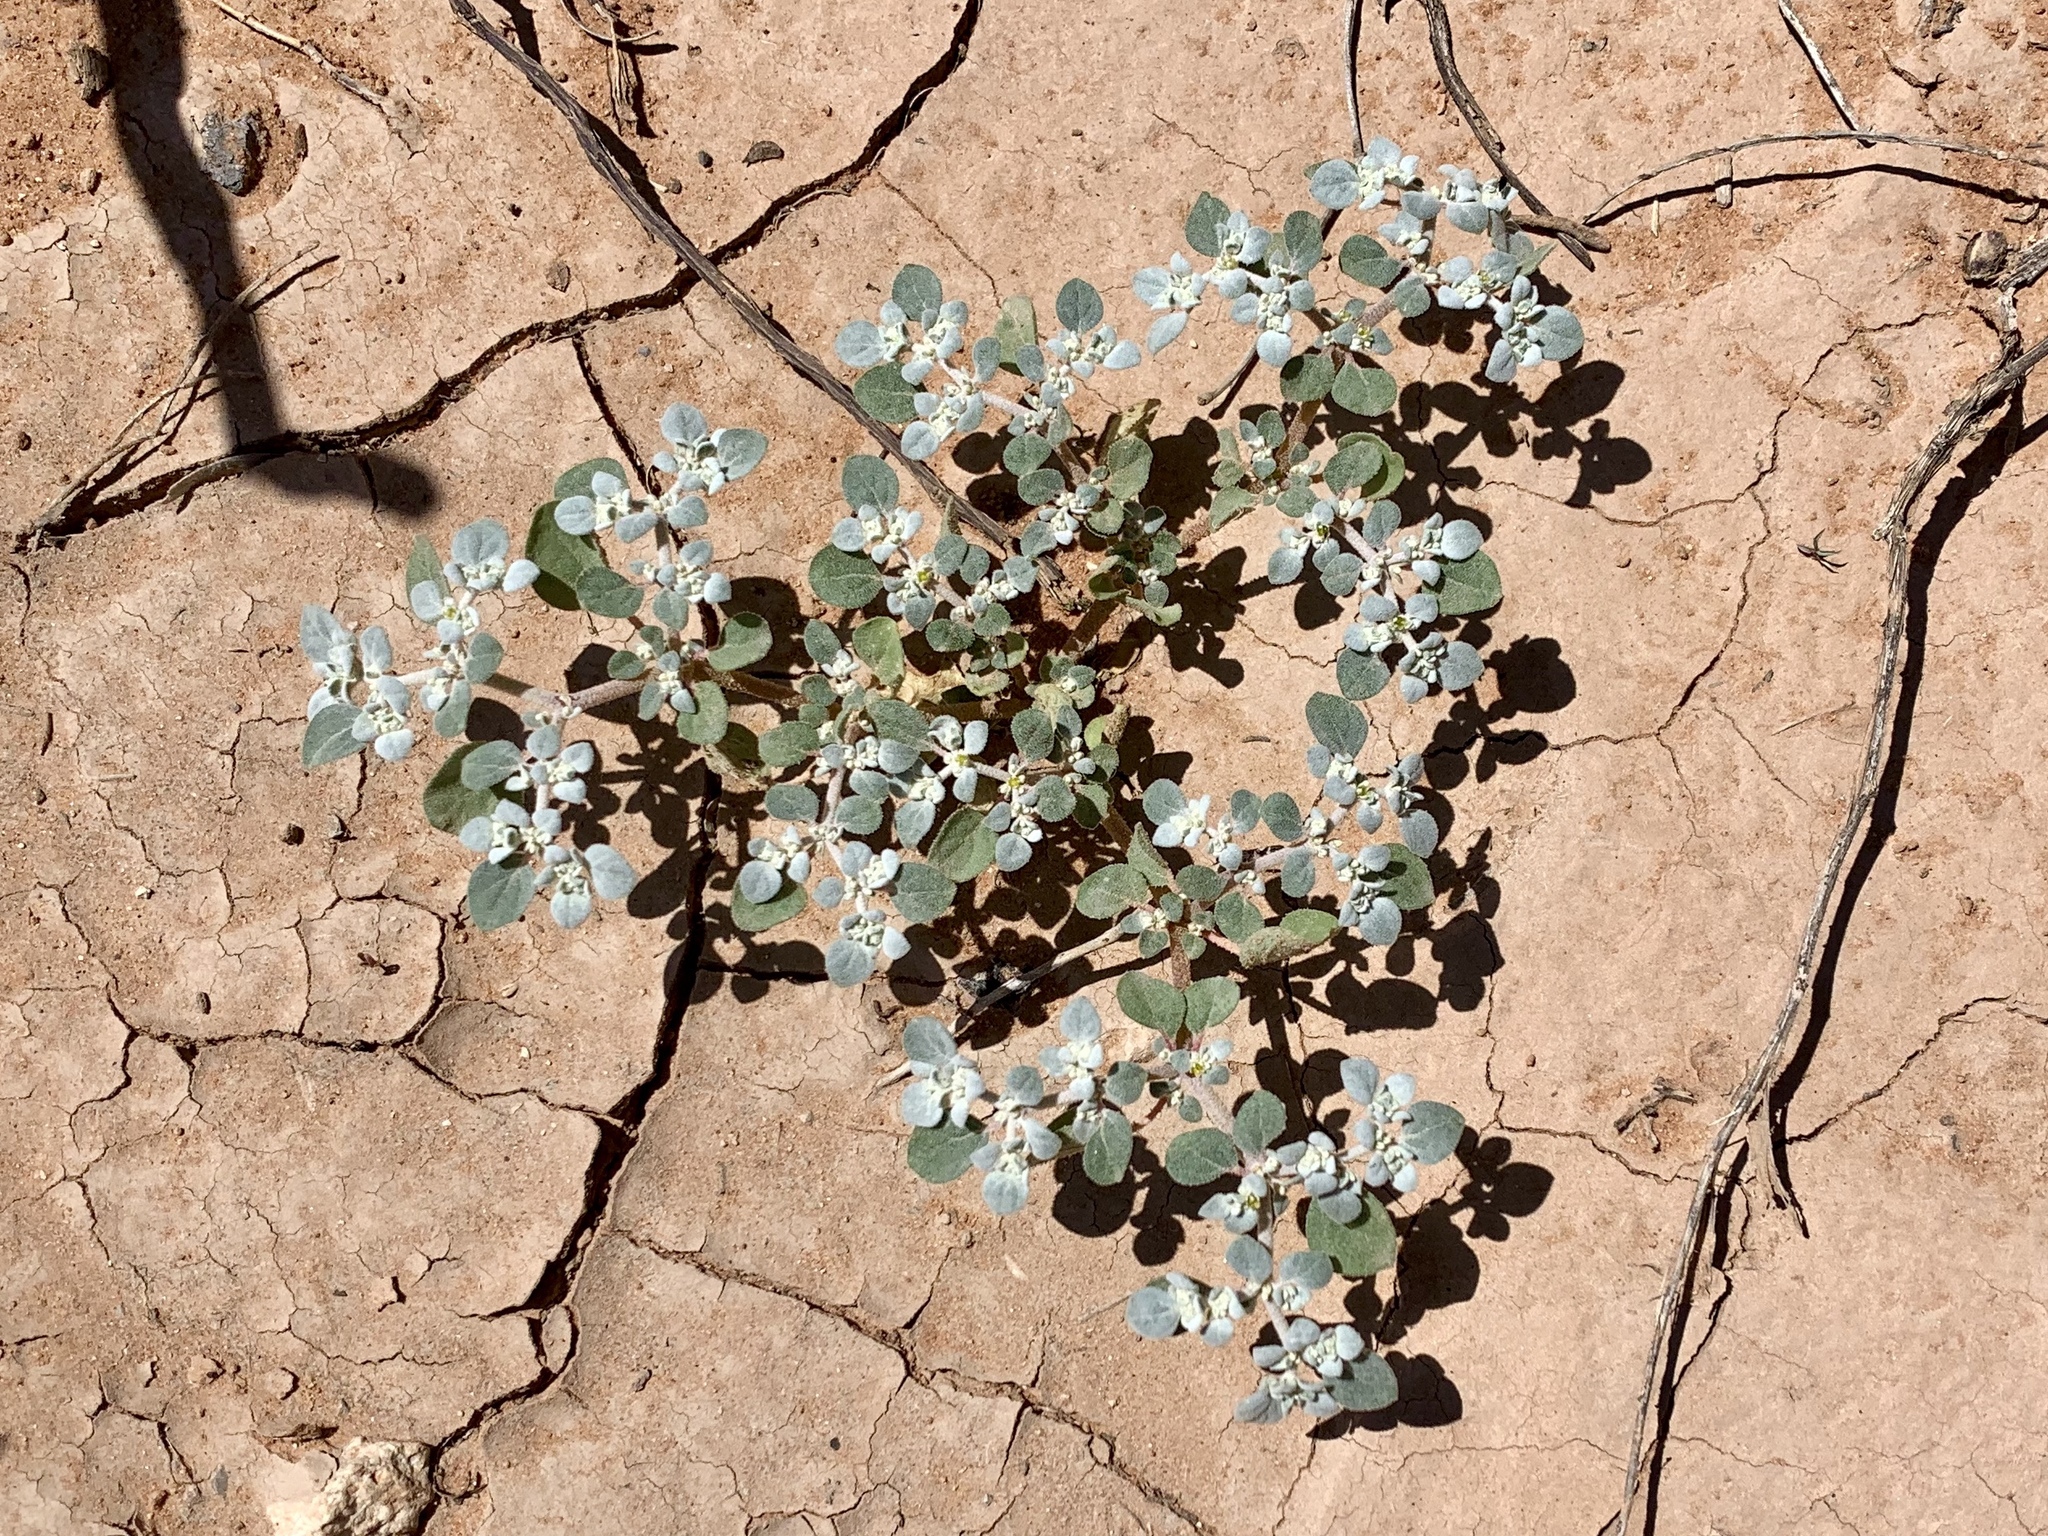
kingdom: Plantae
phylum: Tracheophyta
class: Magnoliopsida
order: Caryophyllales
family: Amaranthaceae
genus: Tidestromia
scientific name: Tidestromia lanuginosa
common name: Woolly tidestromia
